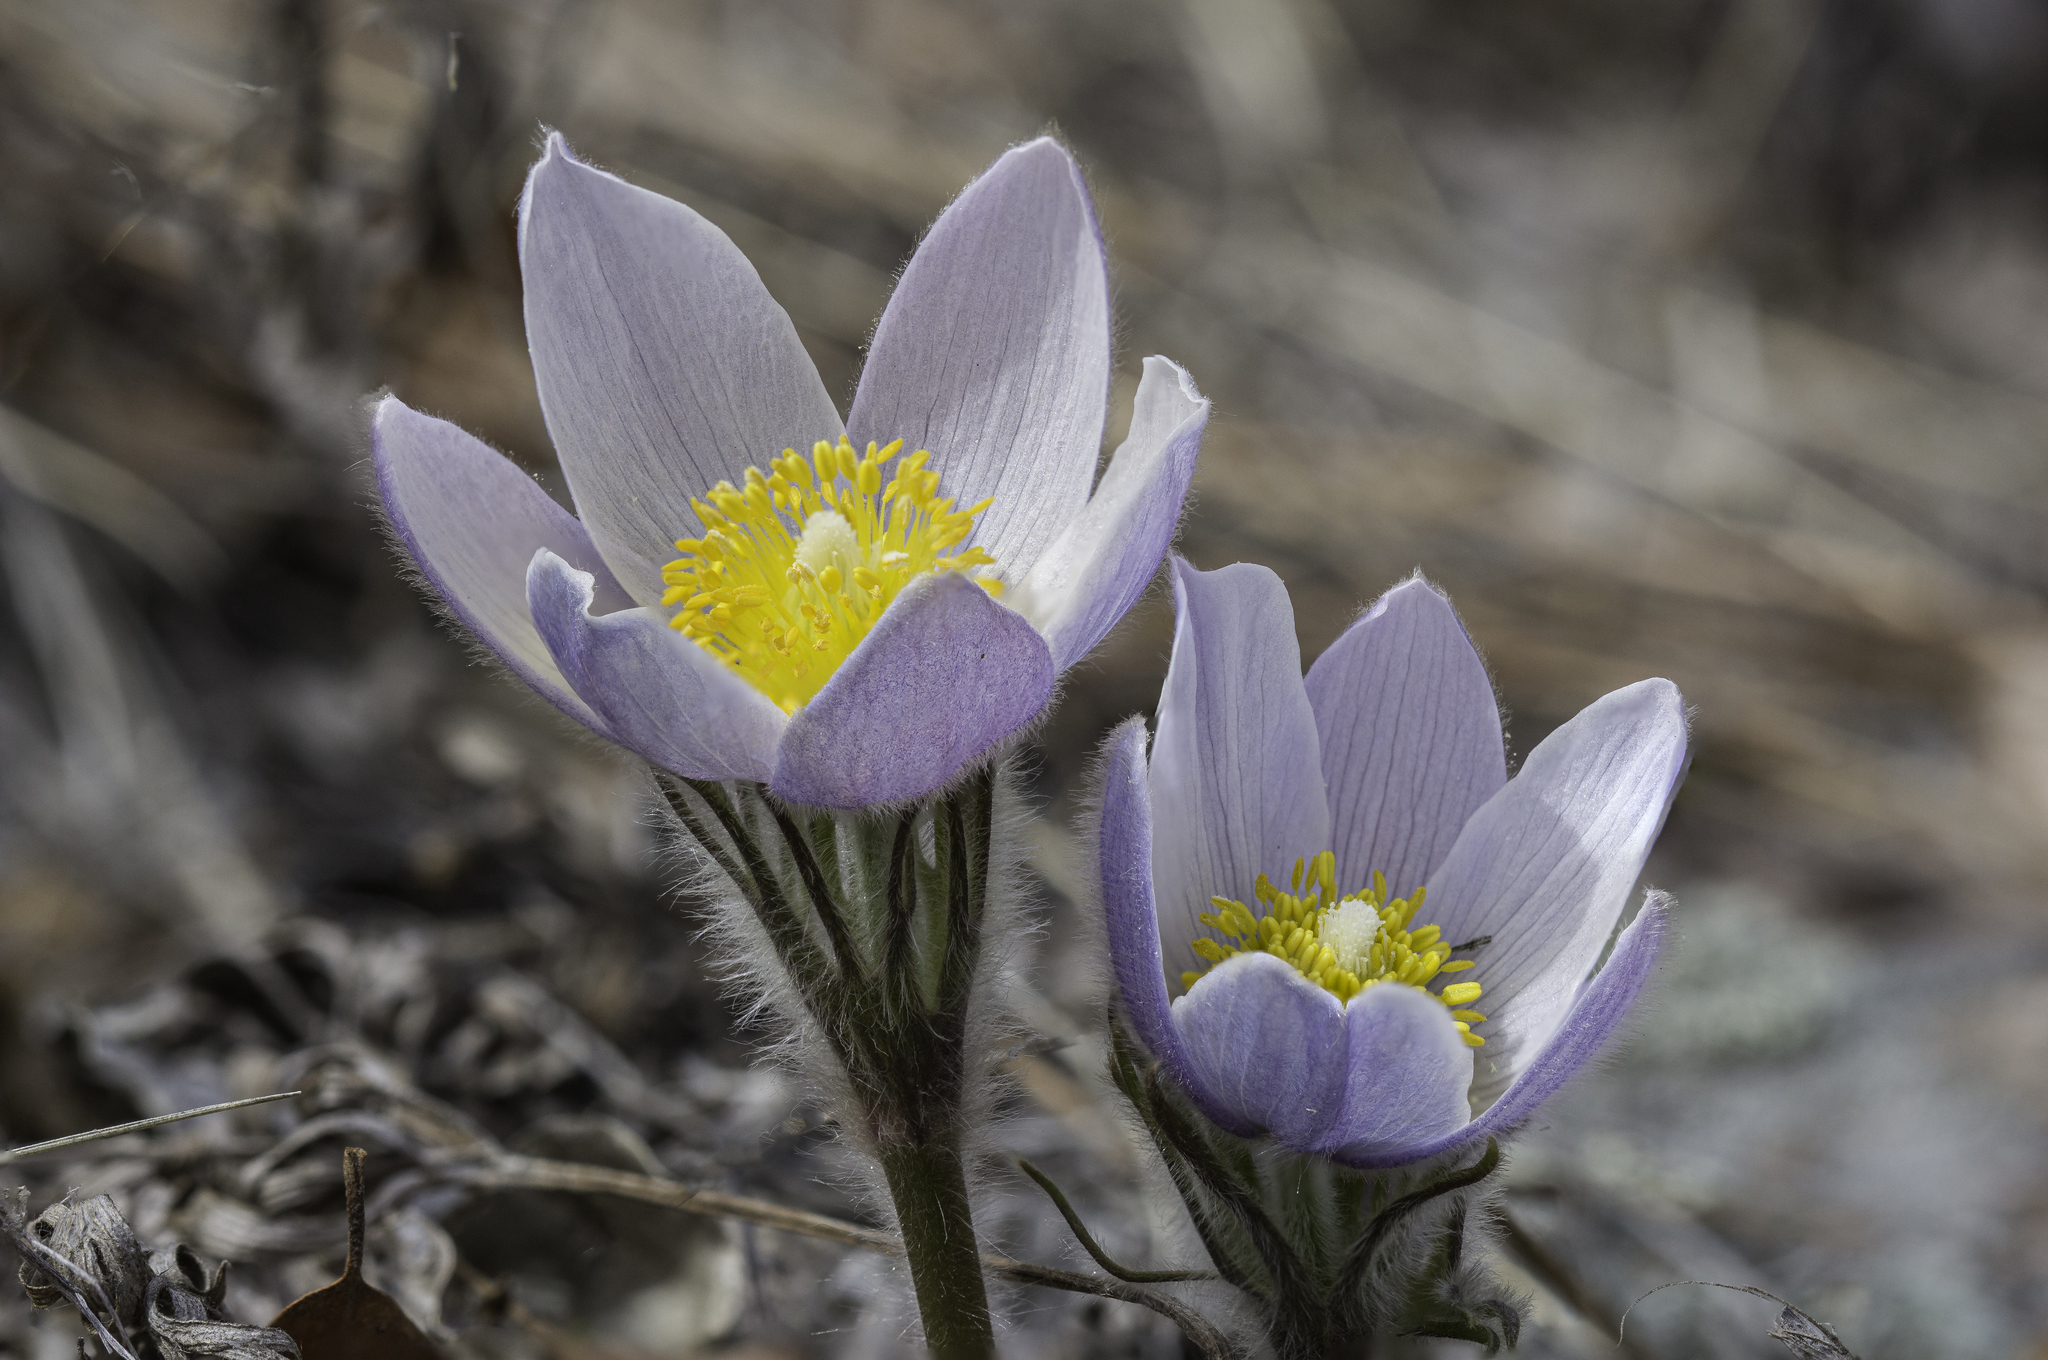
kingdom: Plantae
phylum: Tracheophyta
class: Magnoliopsida
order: Ranunculales
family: Ranunculaceae
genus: Pulsatilla
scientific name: Pulsatilla nuttalliana
